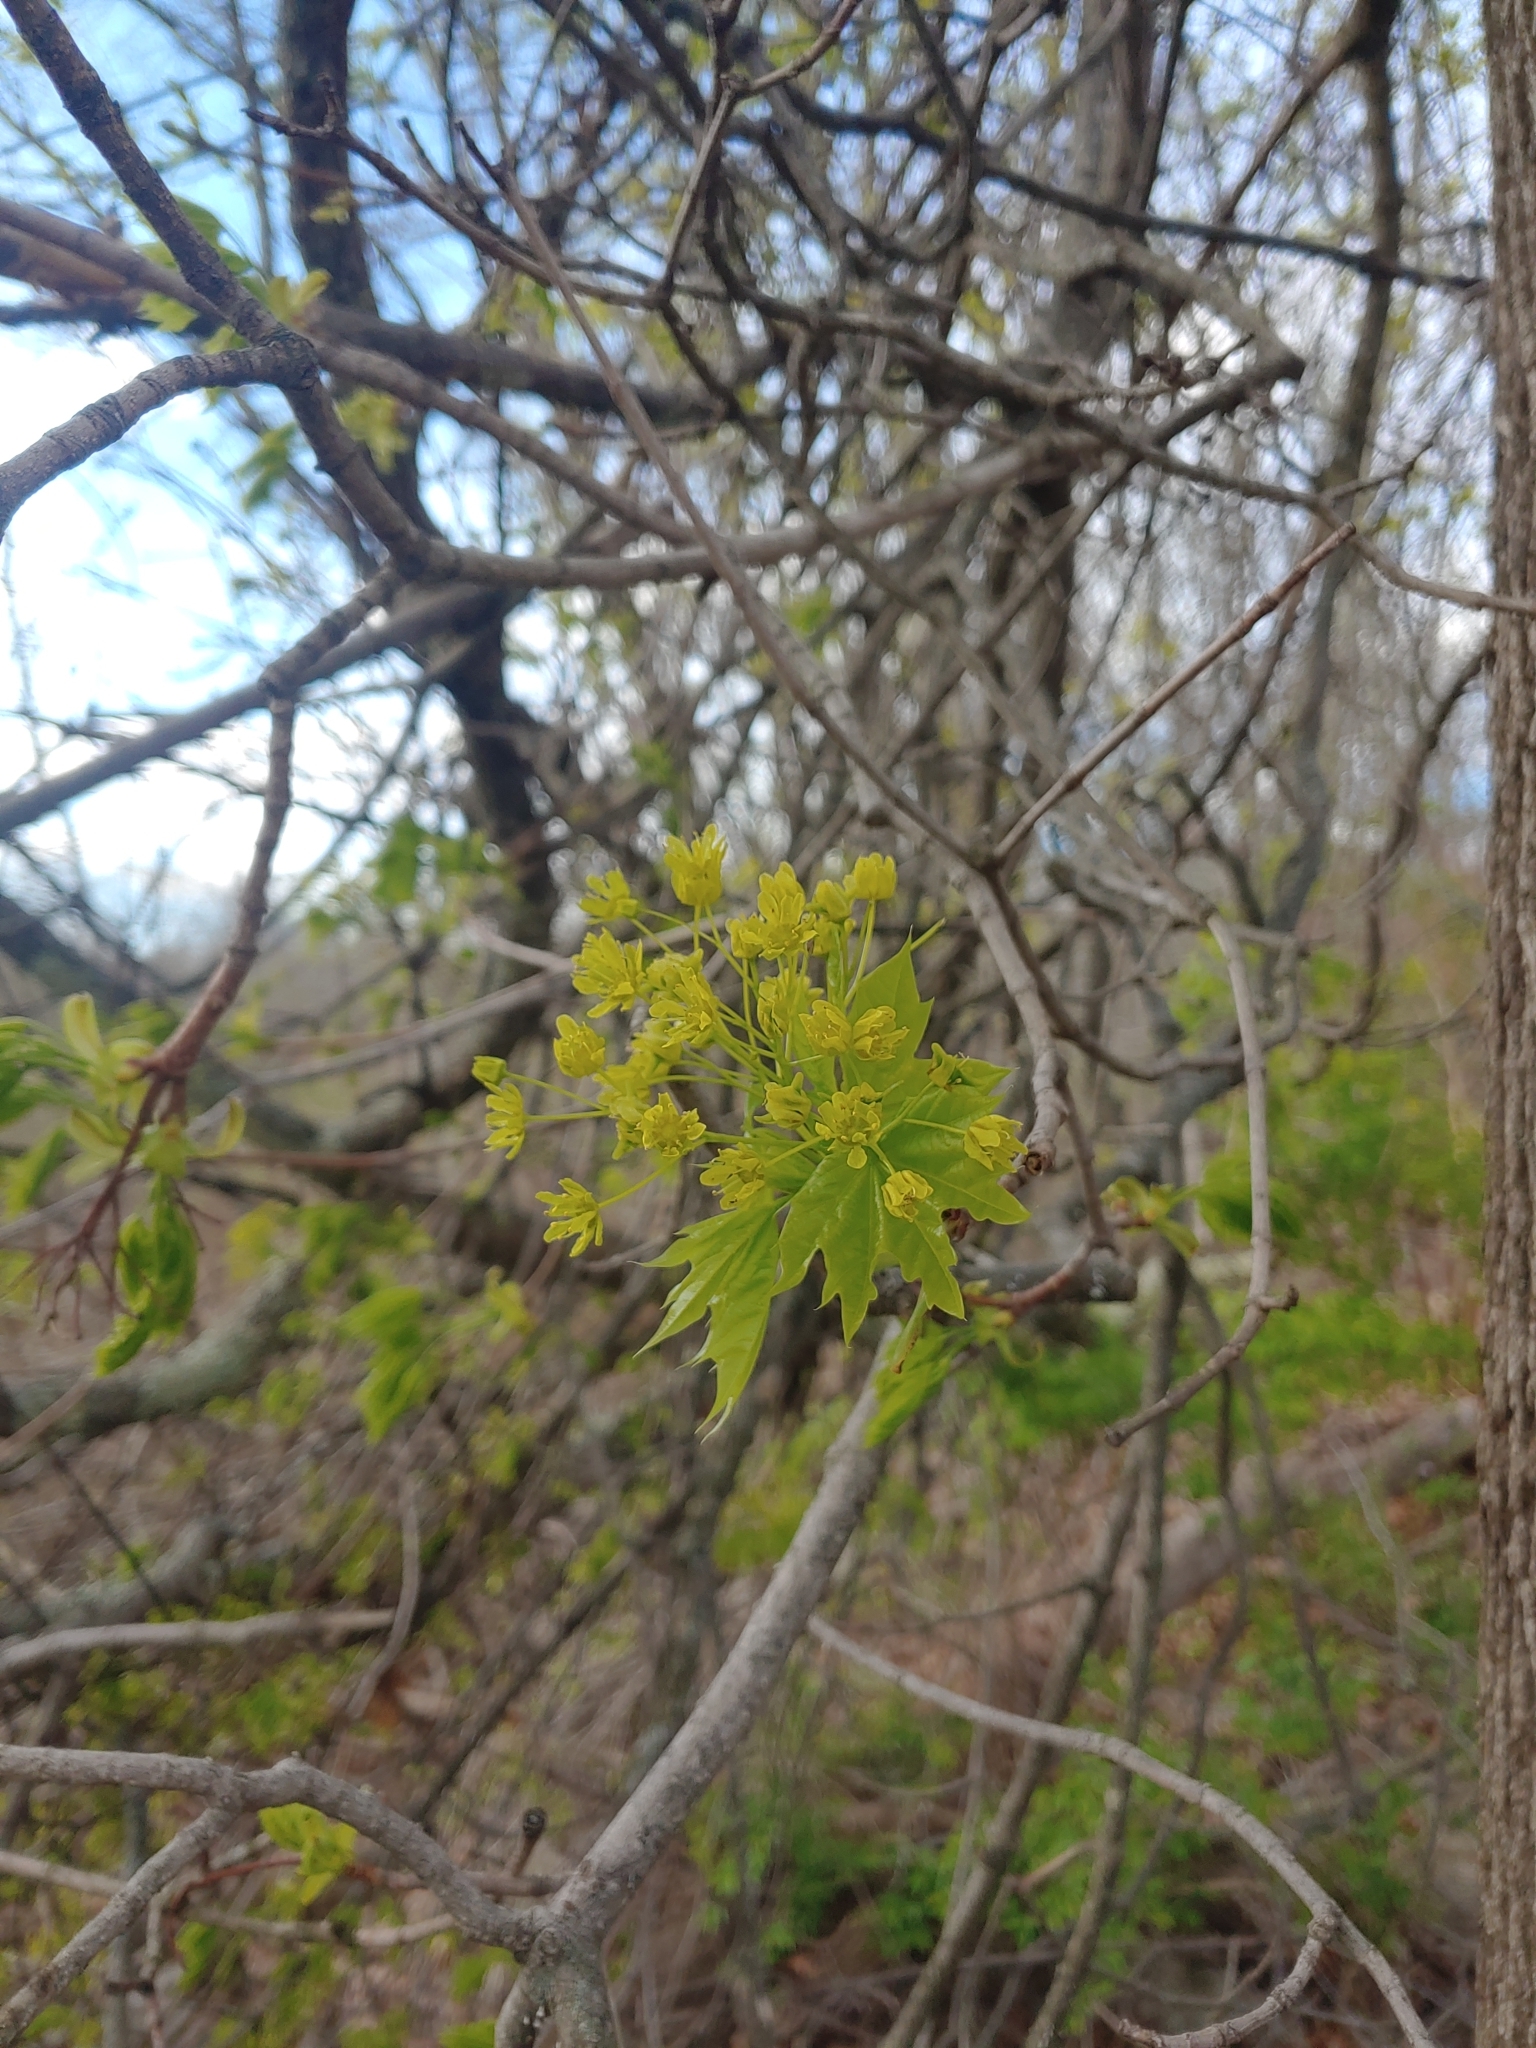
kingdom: Plantae
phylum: Tracheophyta
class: Magnoliopsida
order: Sapindales
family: Sapindaceae
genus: Acer
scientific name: Acer platanoides
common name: Norway maple
